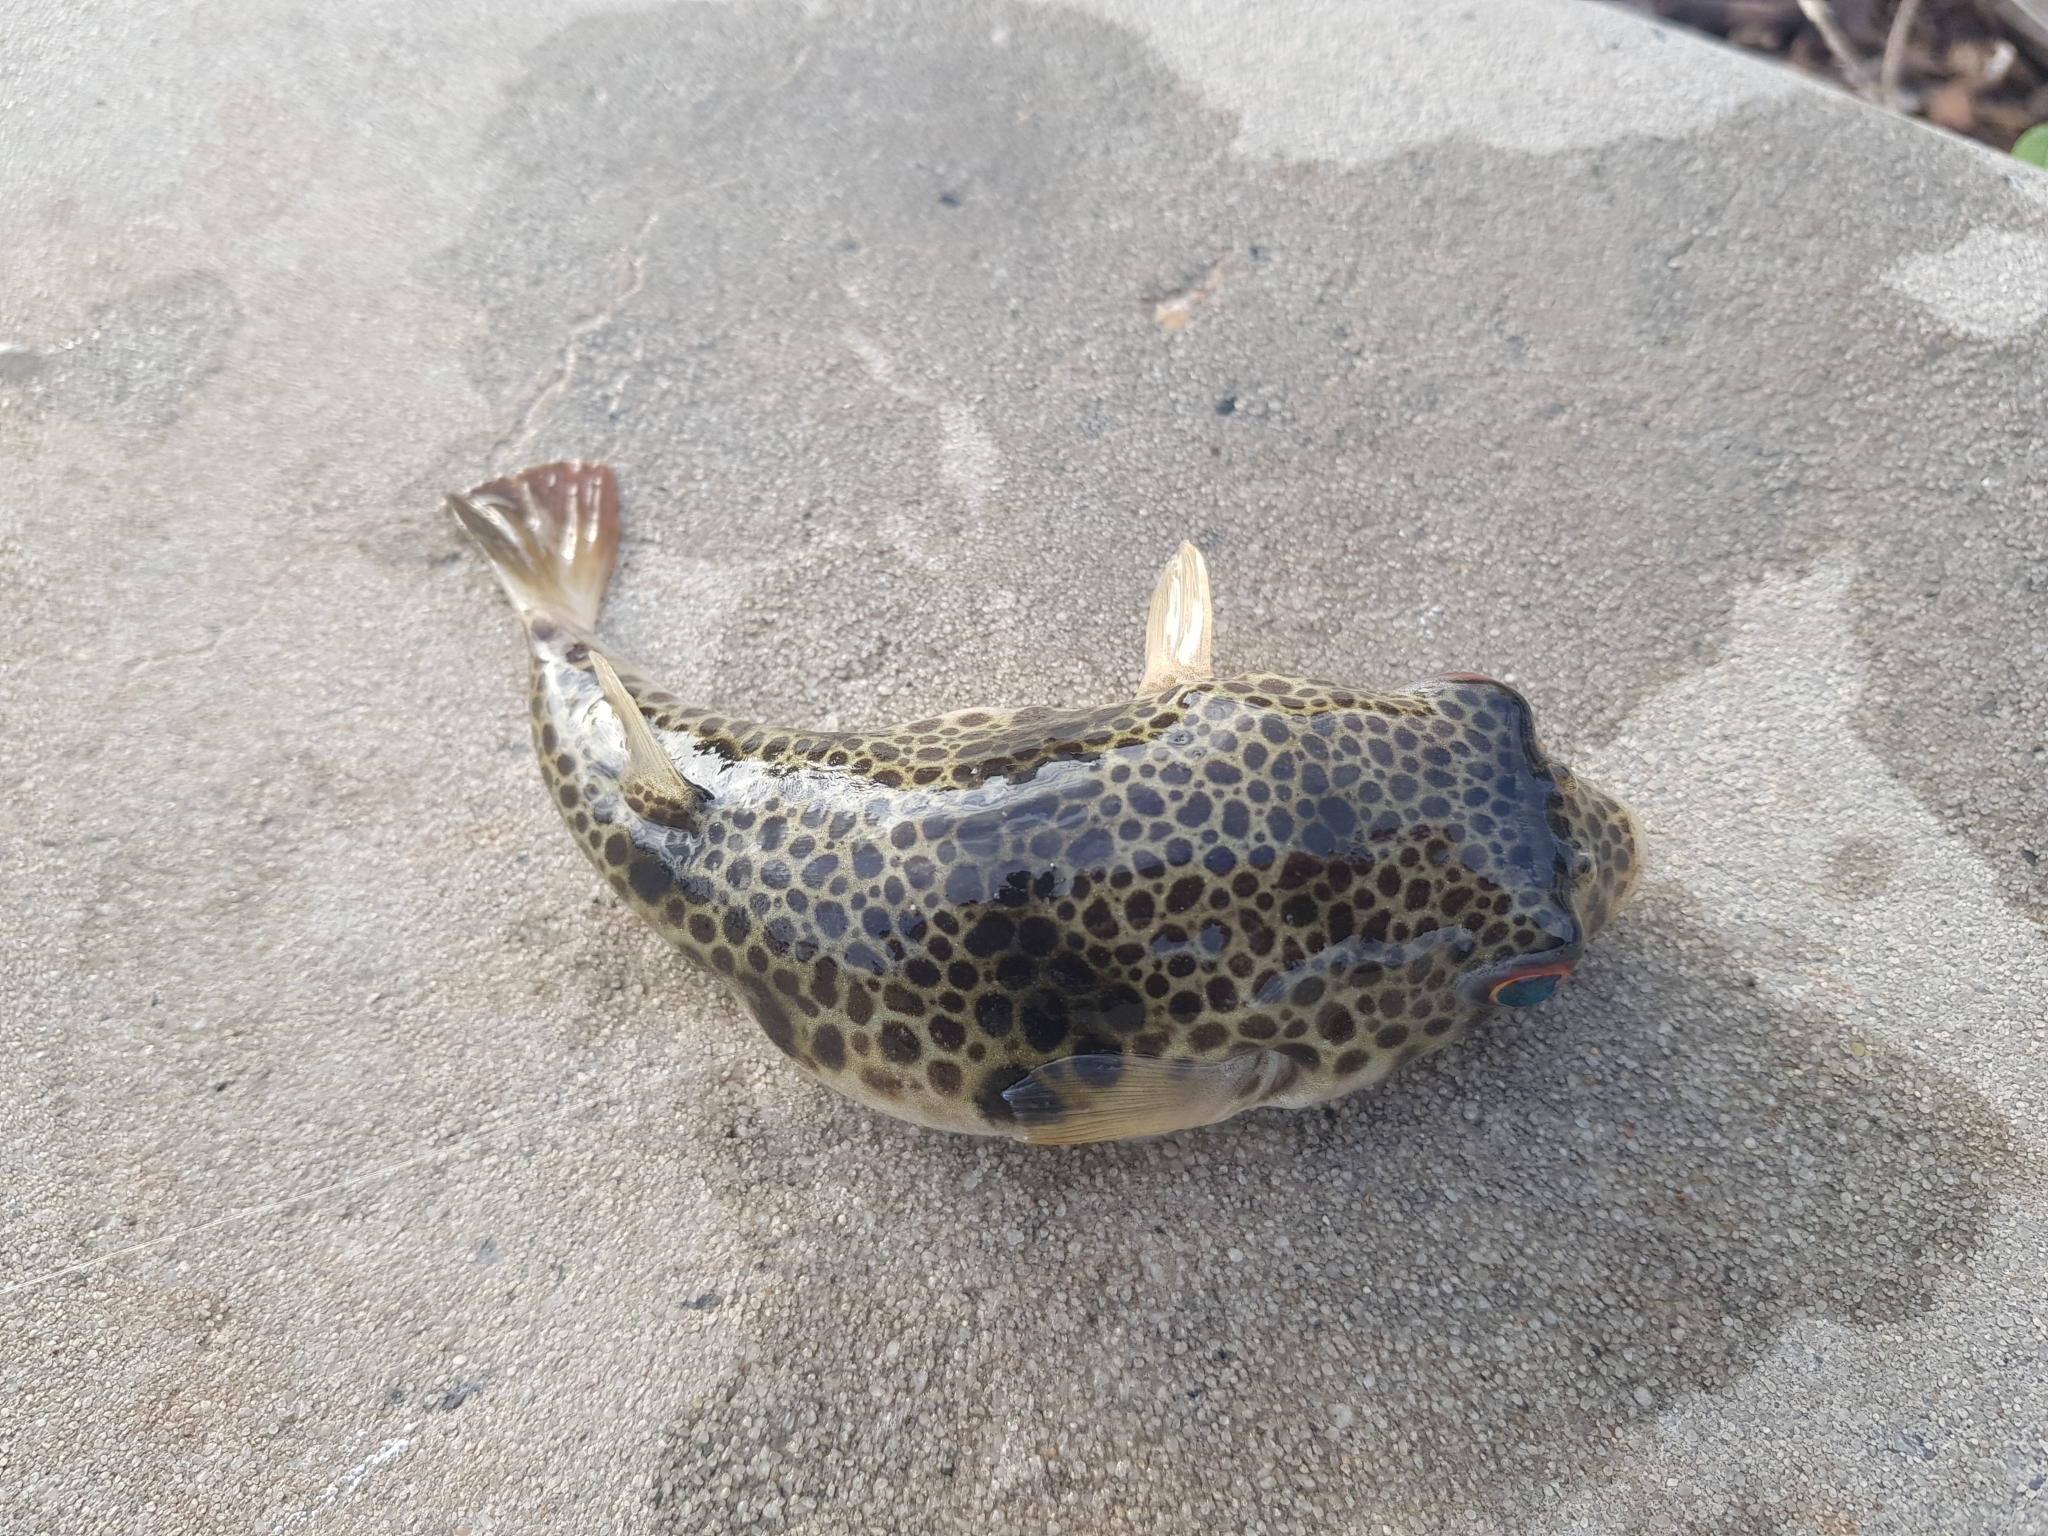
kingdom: Animalia
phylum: Chordata
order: Tetraodontiformes
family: Tetraodontidae
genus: Tetractenos
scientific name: Tetractenos glaber
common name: Smooth toadfish
